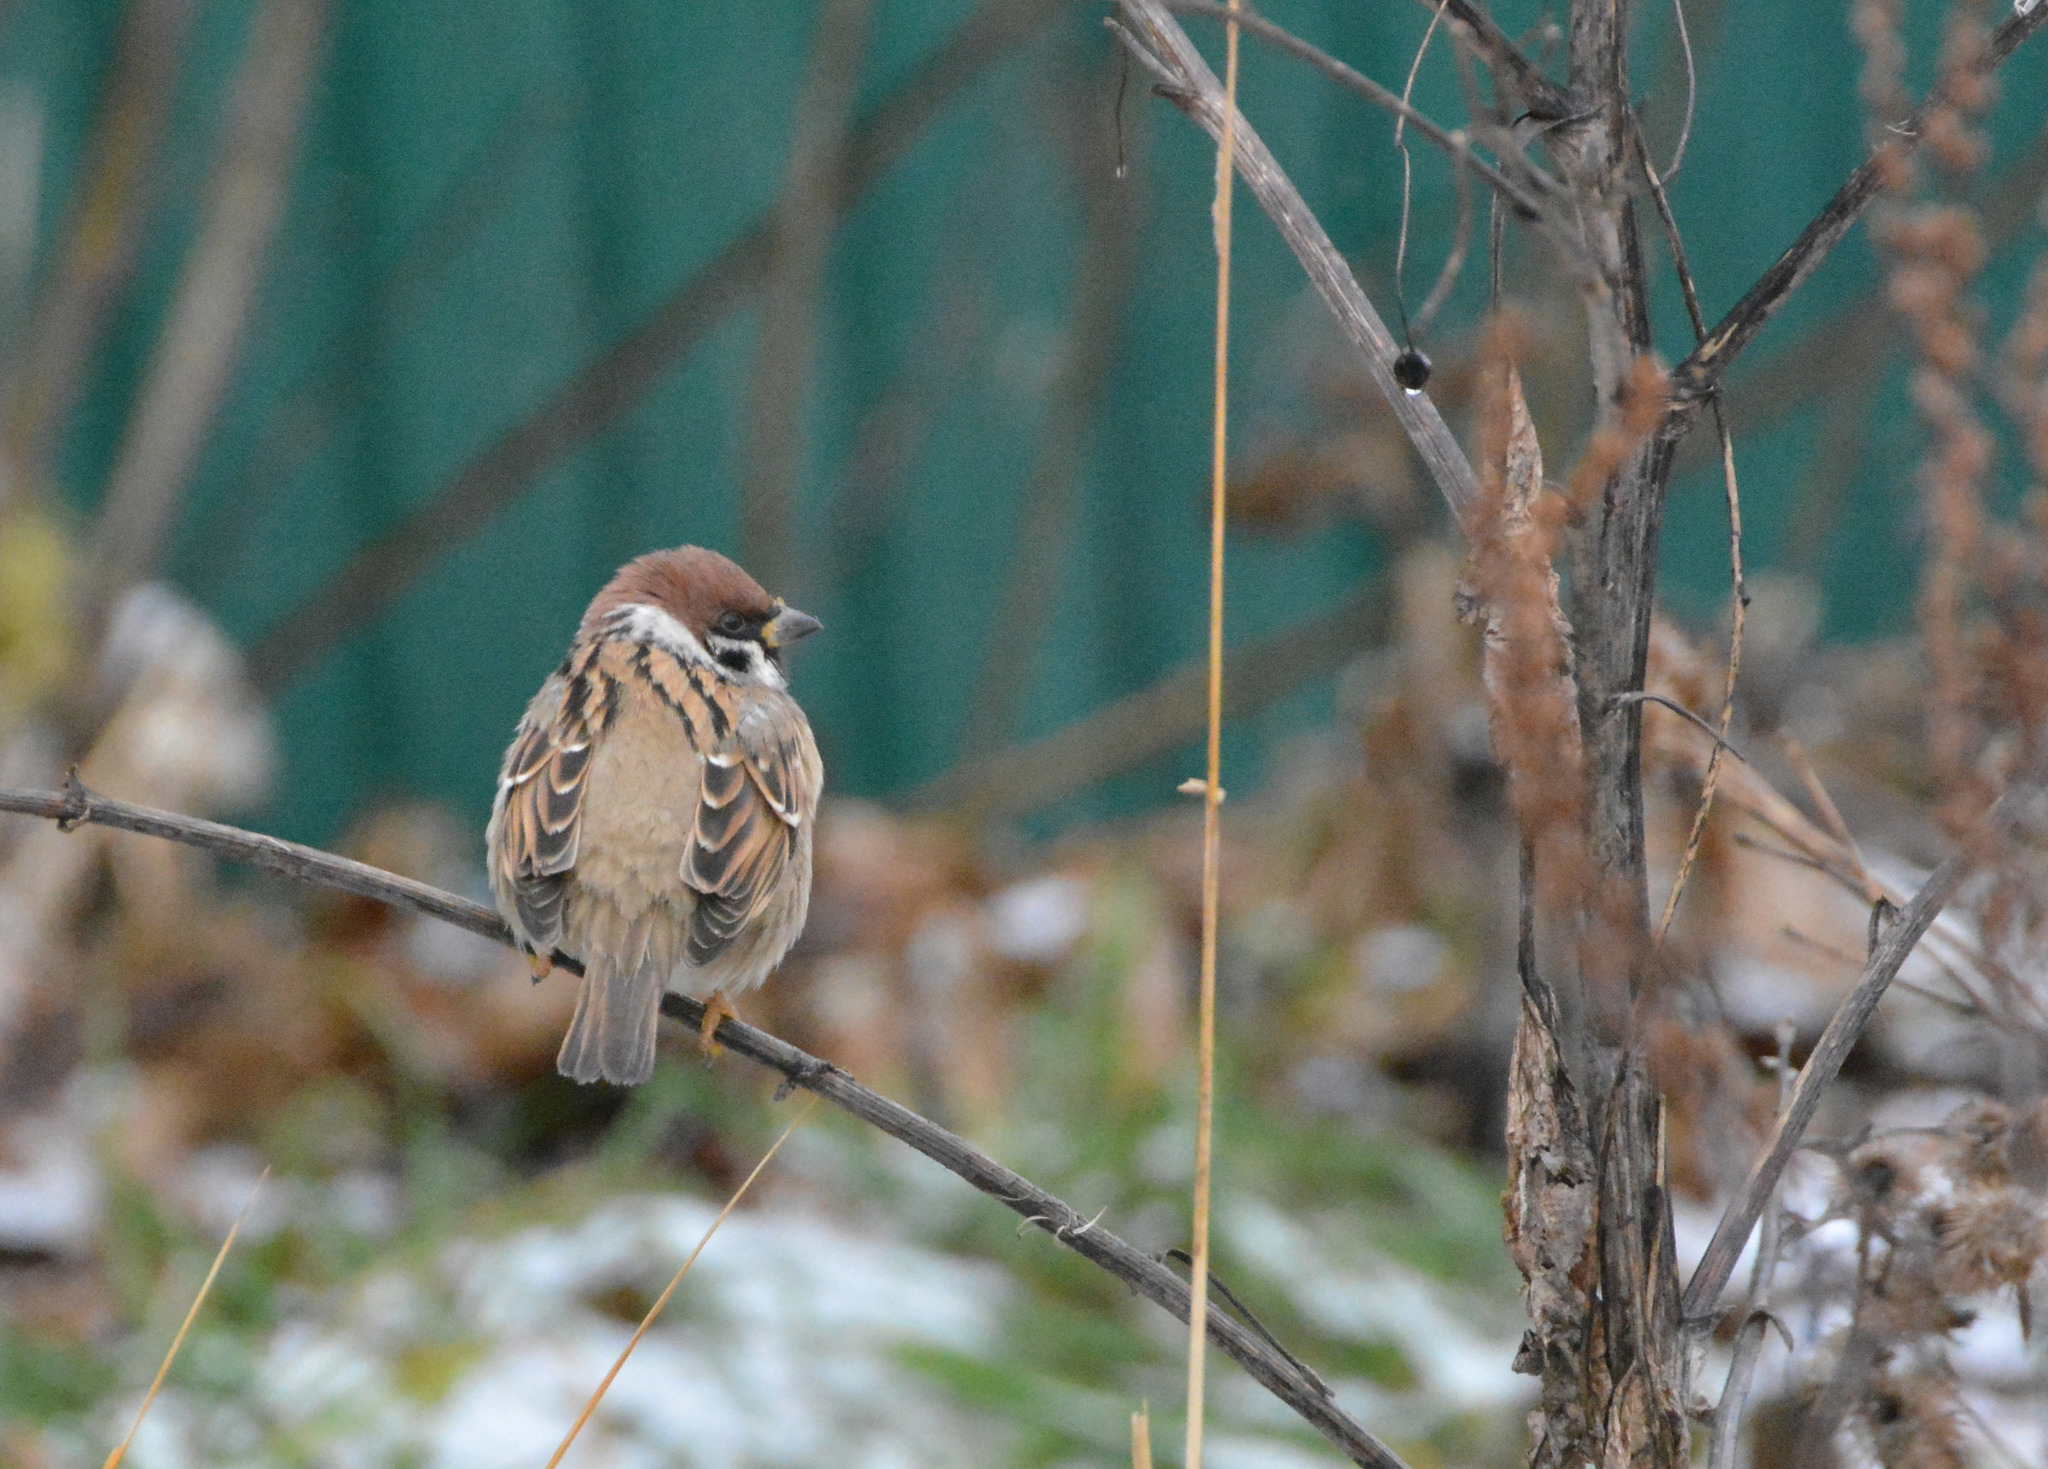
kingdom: Animalia
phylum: Chordata
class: Aves
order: Passeriformes
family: Passeridae
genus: Passer
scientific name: Passer montanus
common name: Eurasian tree sparrow
